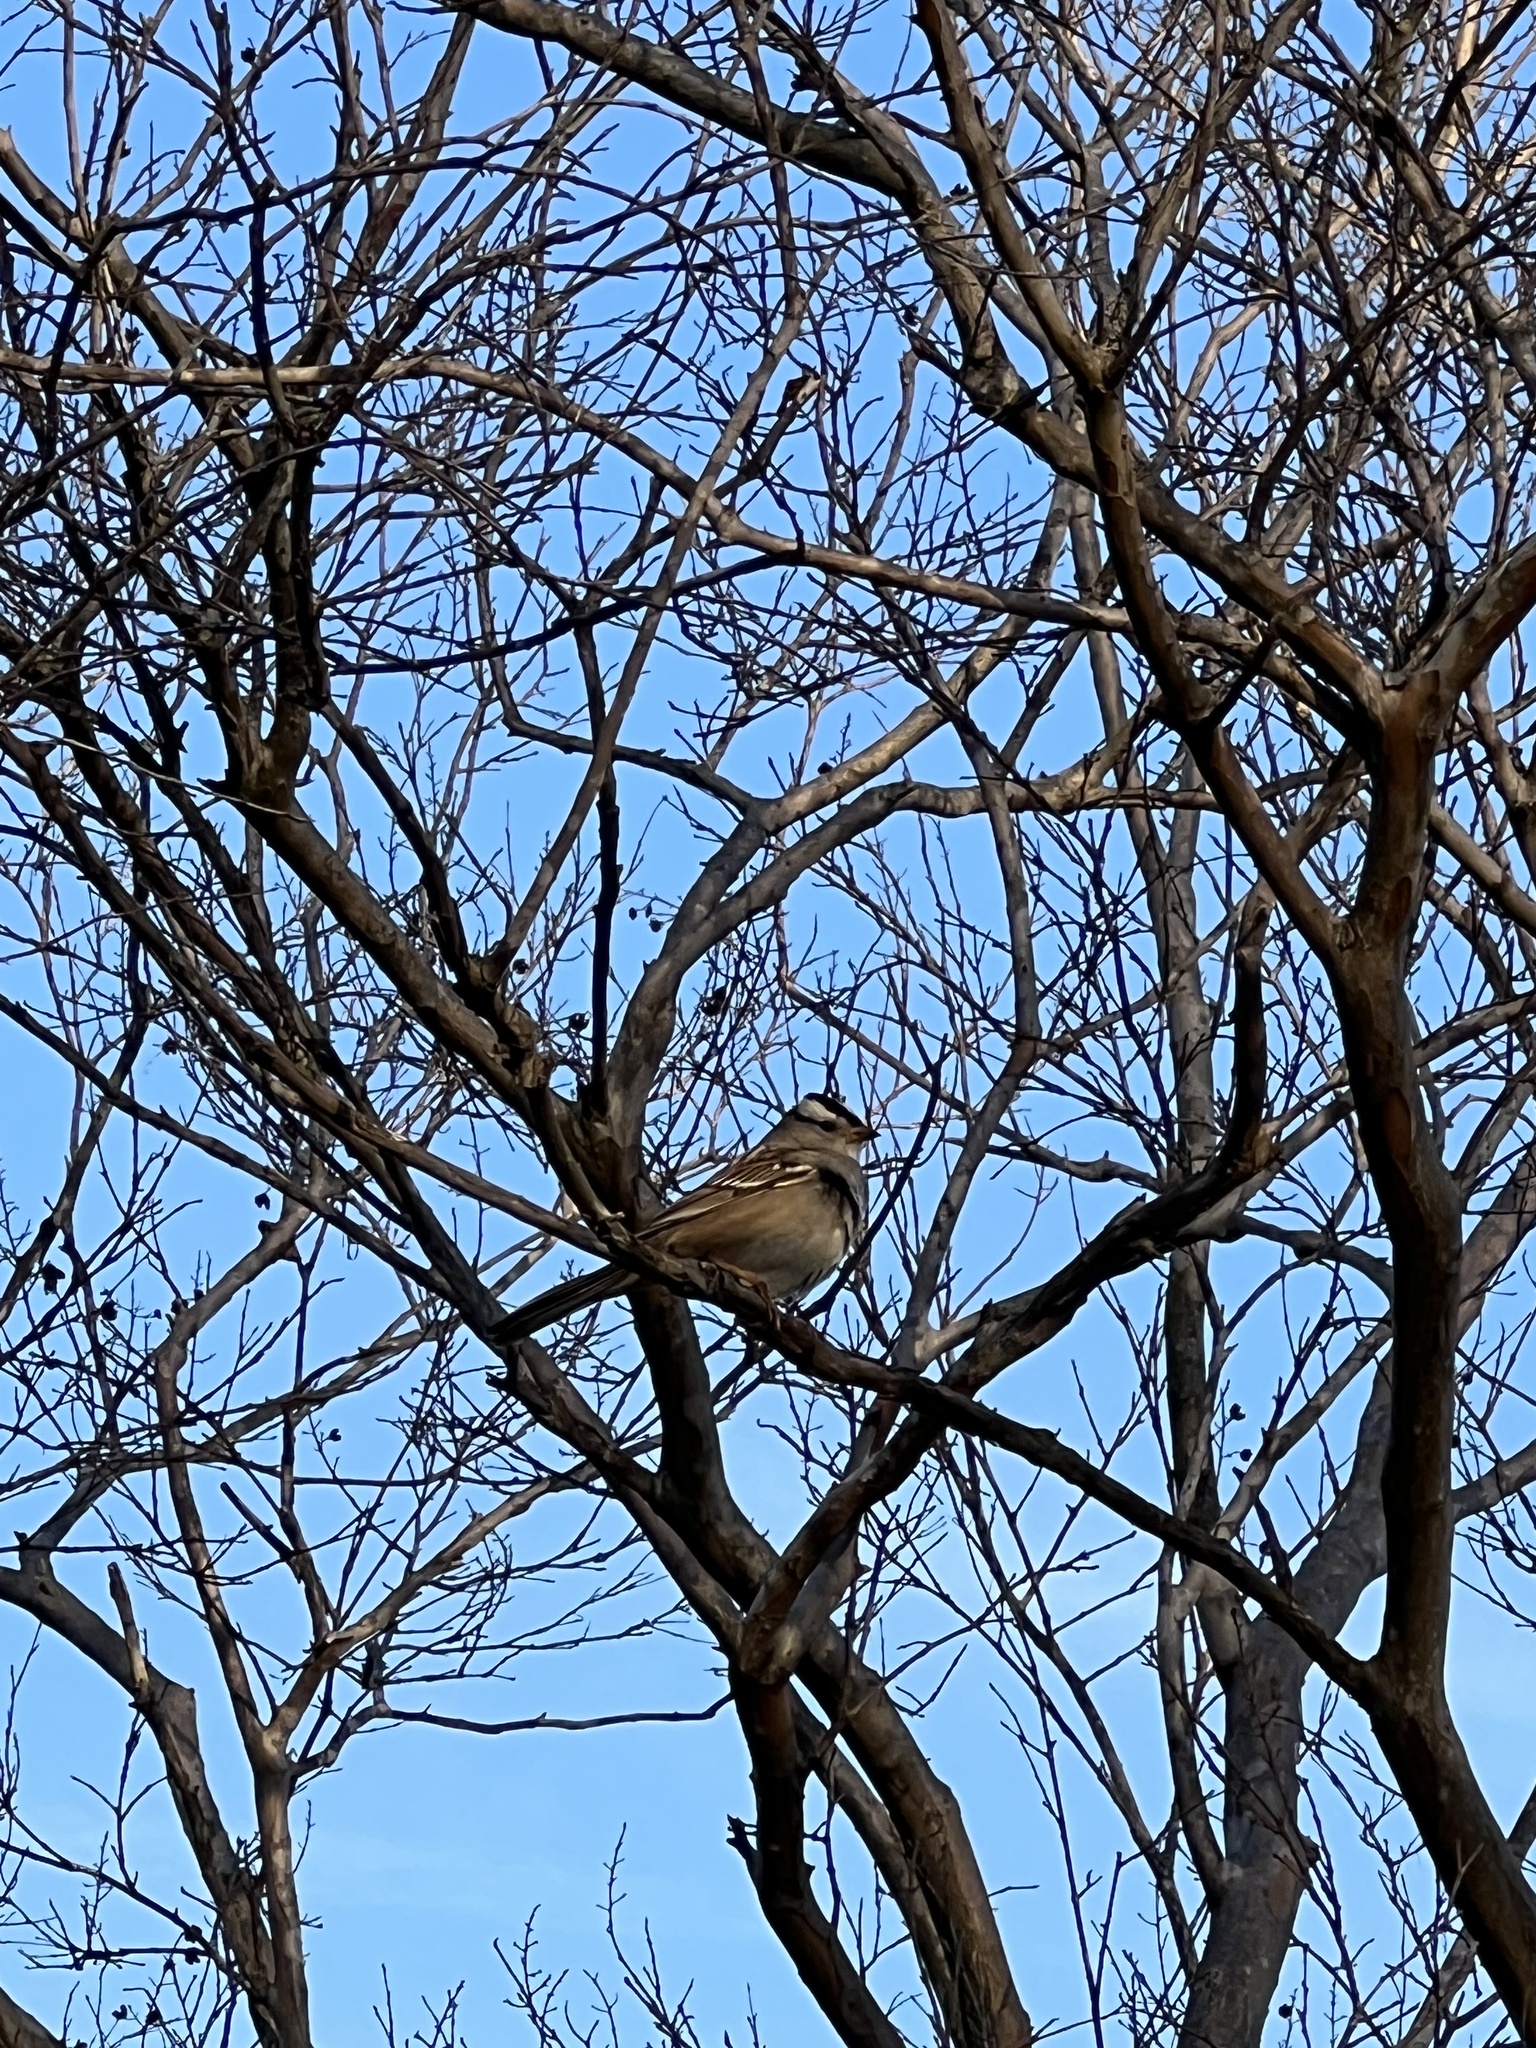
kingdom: Animalia
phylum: Chordata
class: Aves
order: Passeriformes
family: Passerellidae
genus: Zonotrichia
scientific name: Zonotrichia leucophrys
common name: White-crowned sparrow
